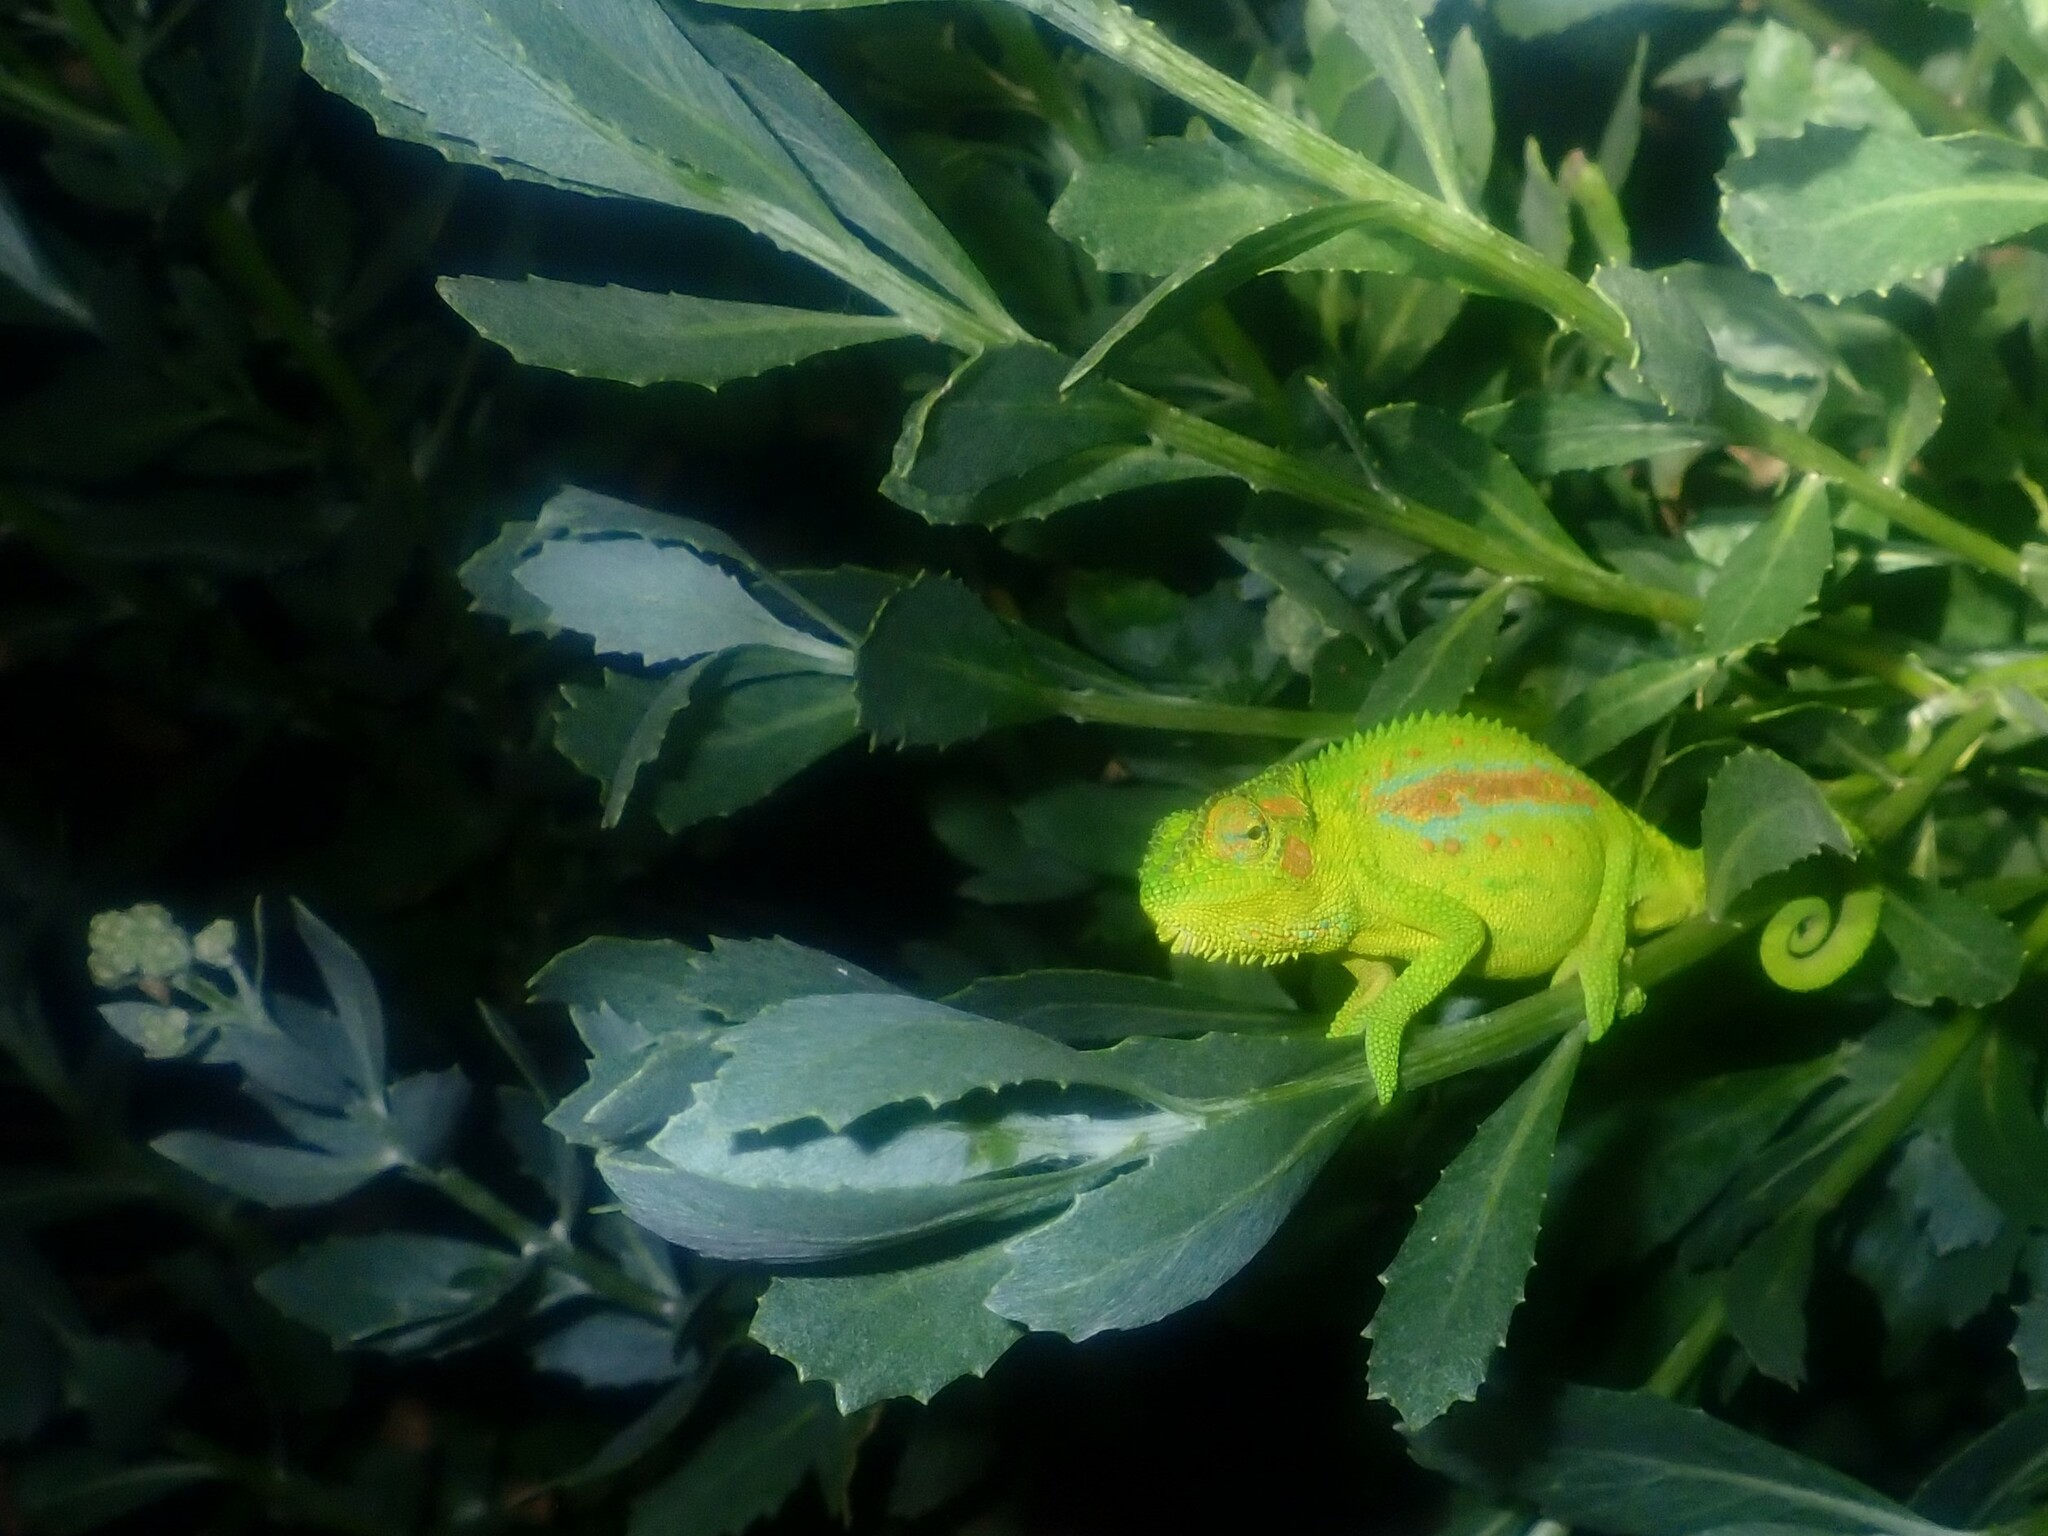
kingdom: Animalia
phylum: Chordata
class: Squamata
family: Chamaeleonidae
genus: Bradypodion
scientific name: Bradypodion pumilum
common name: Cape dwarf chameleon
